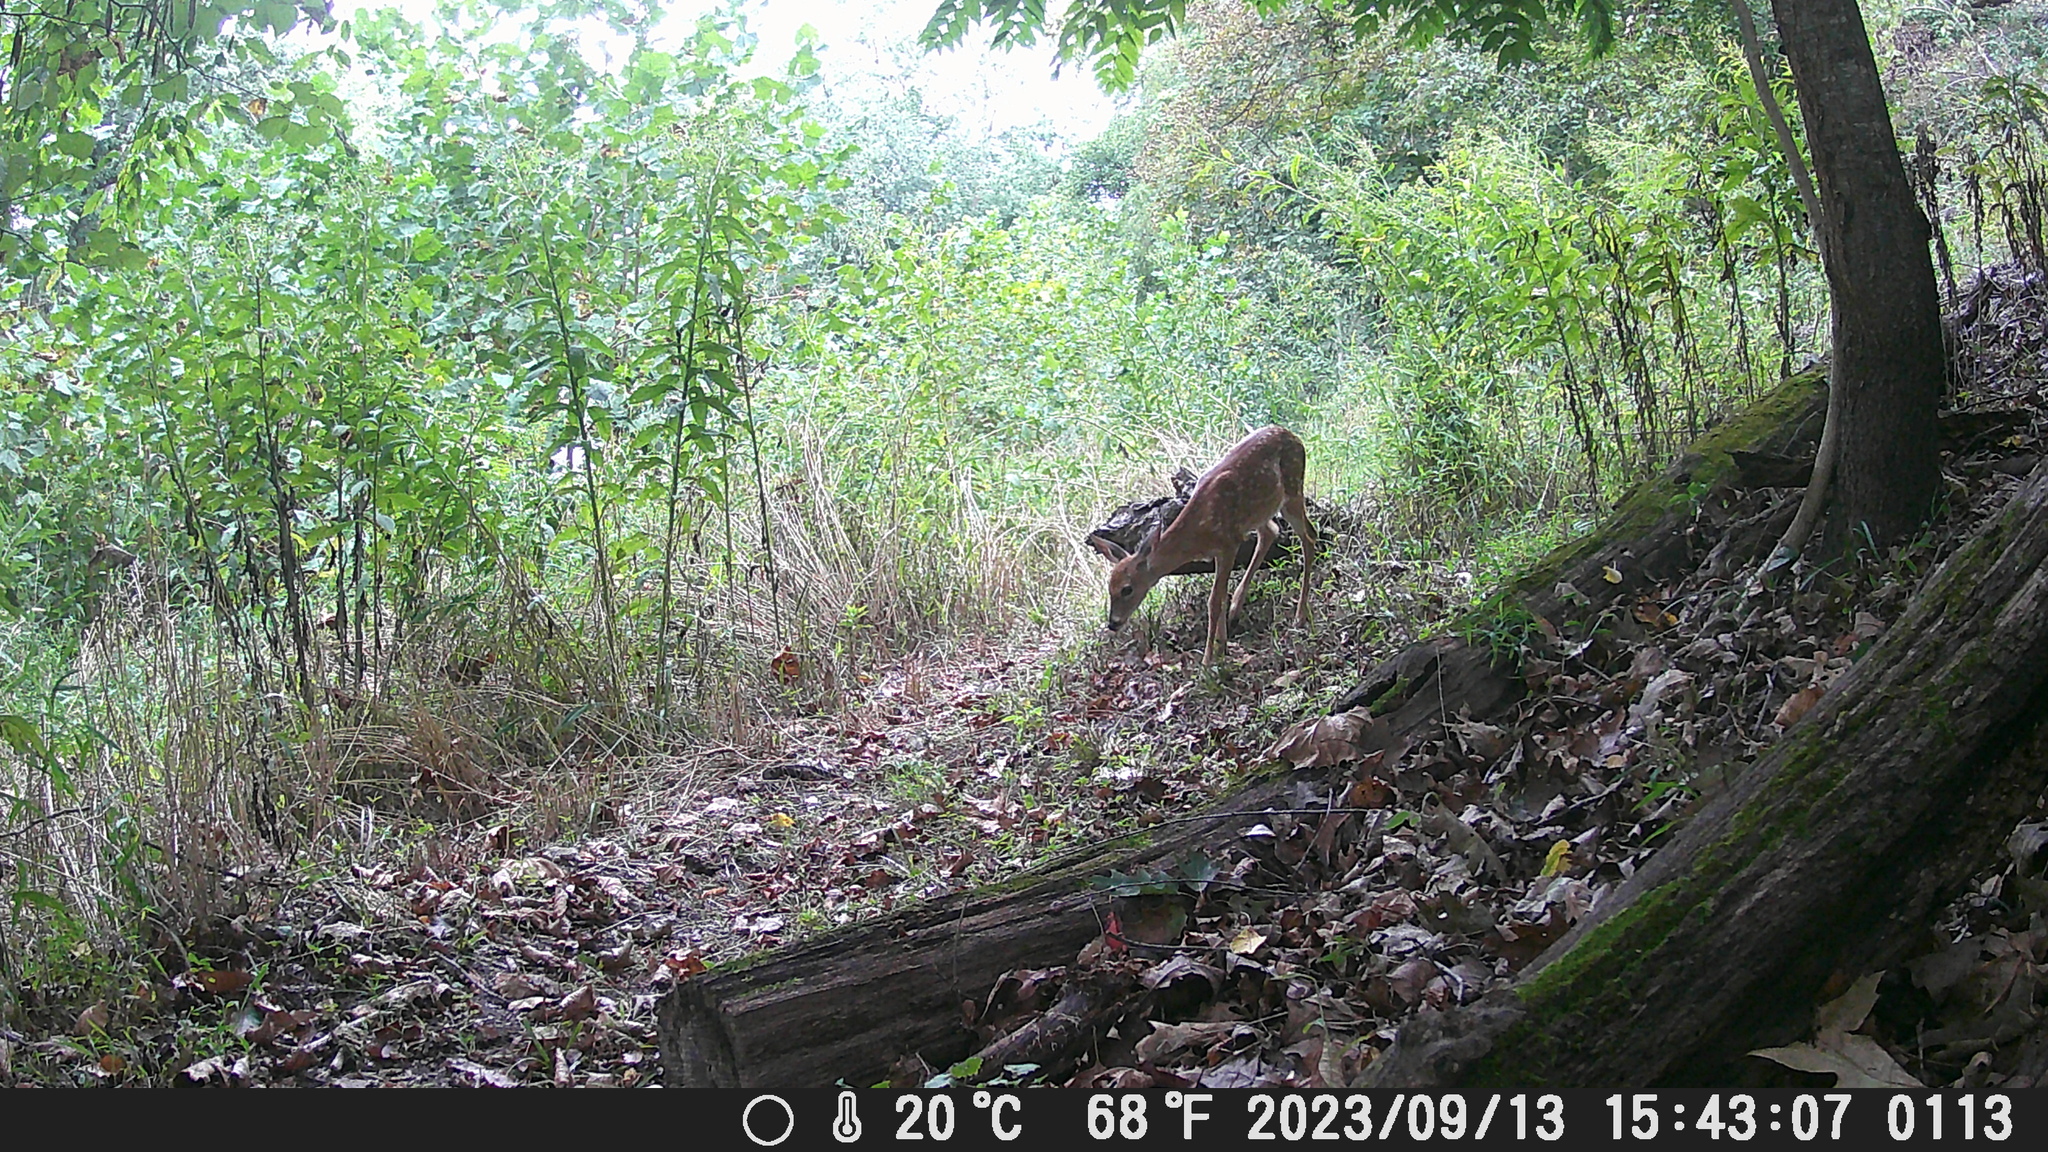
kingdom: Animalia
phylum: Chordata
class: Mammalia
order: Artiodactyla
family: Cervidae
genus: Odocoileus
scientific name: Odocoileus virginianus
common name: White-tailed deer
